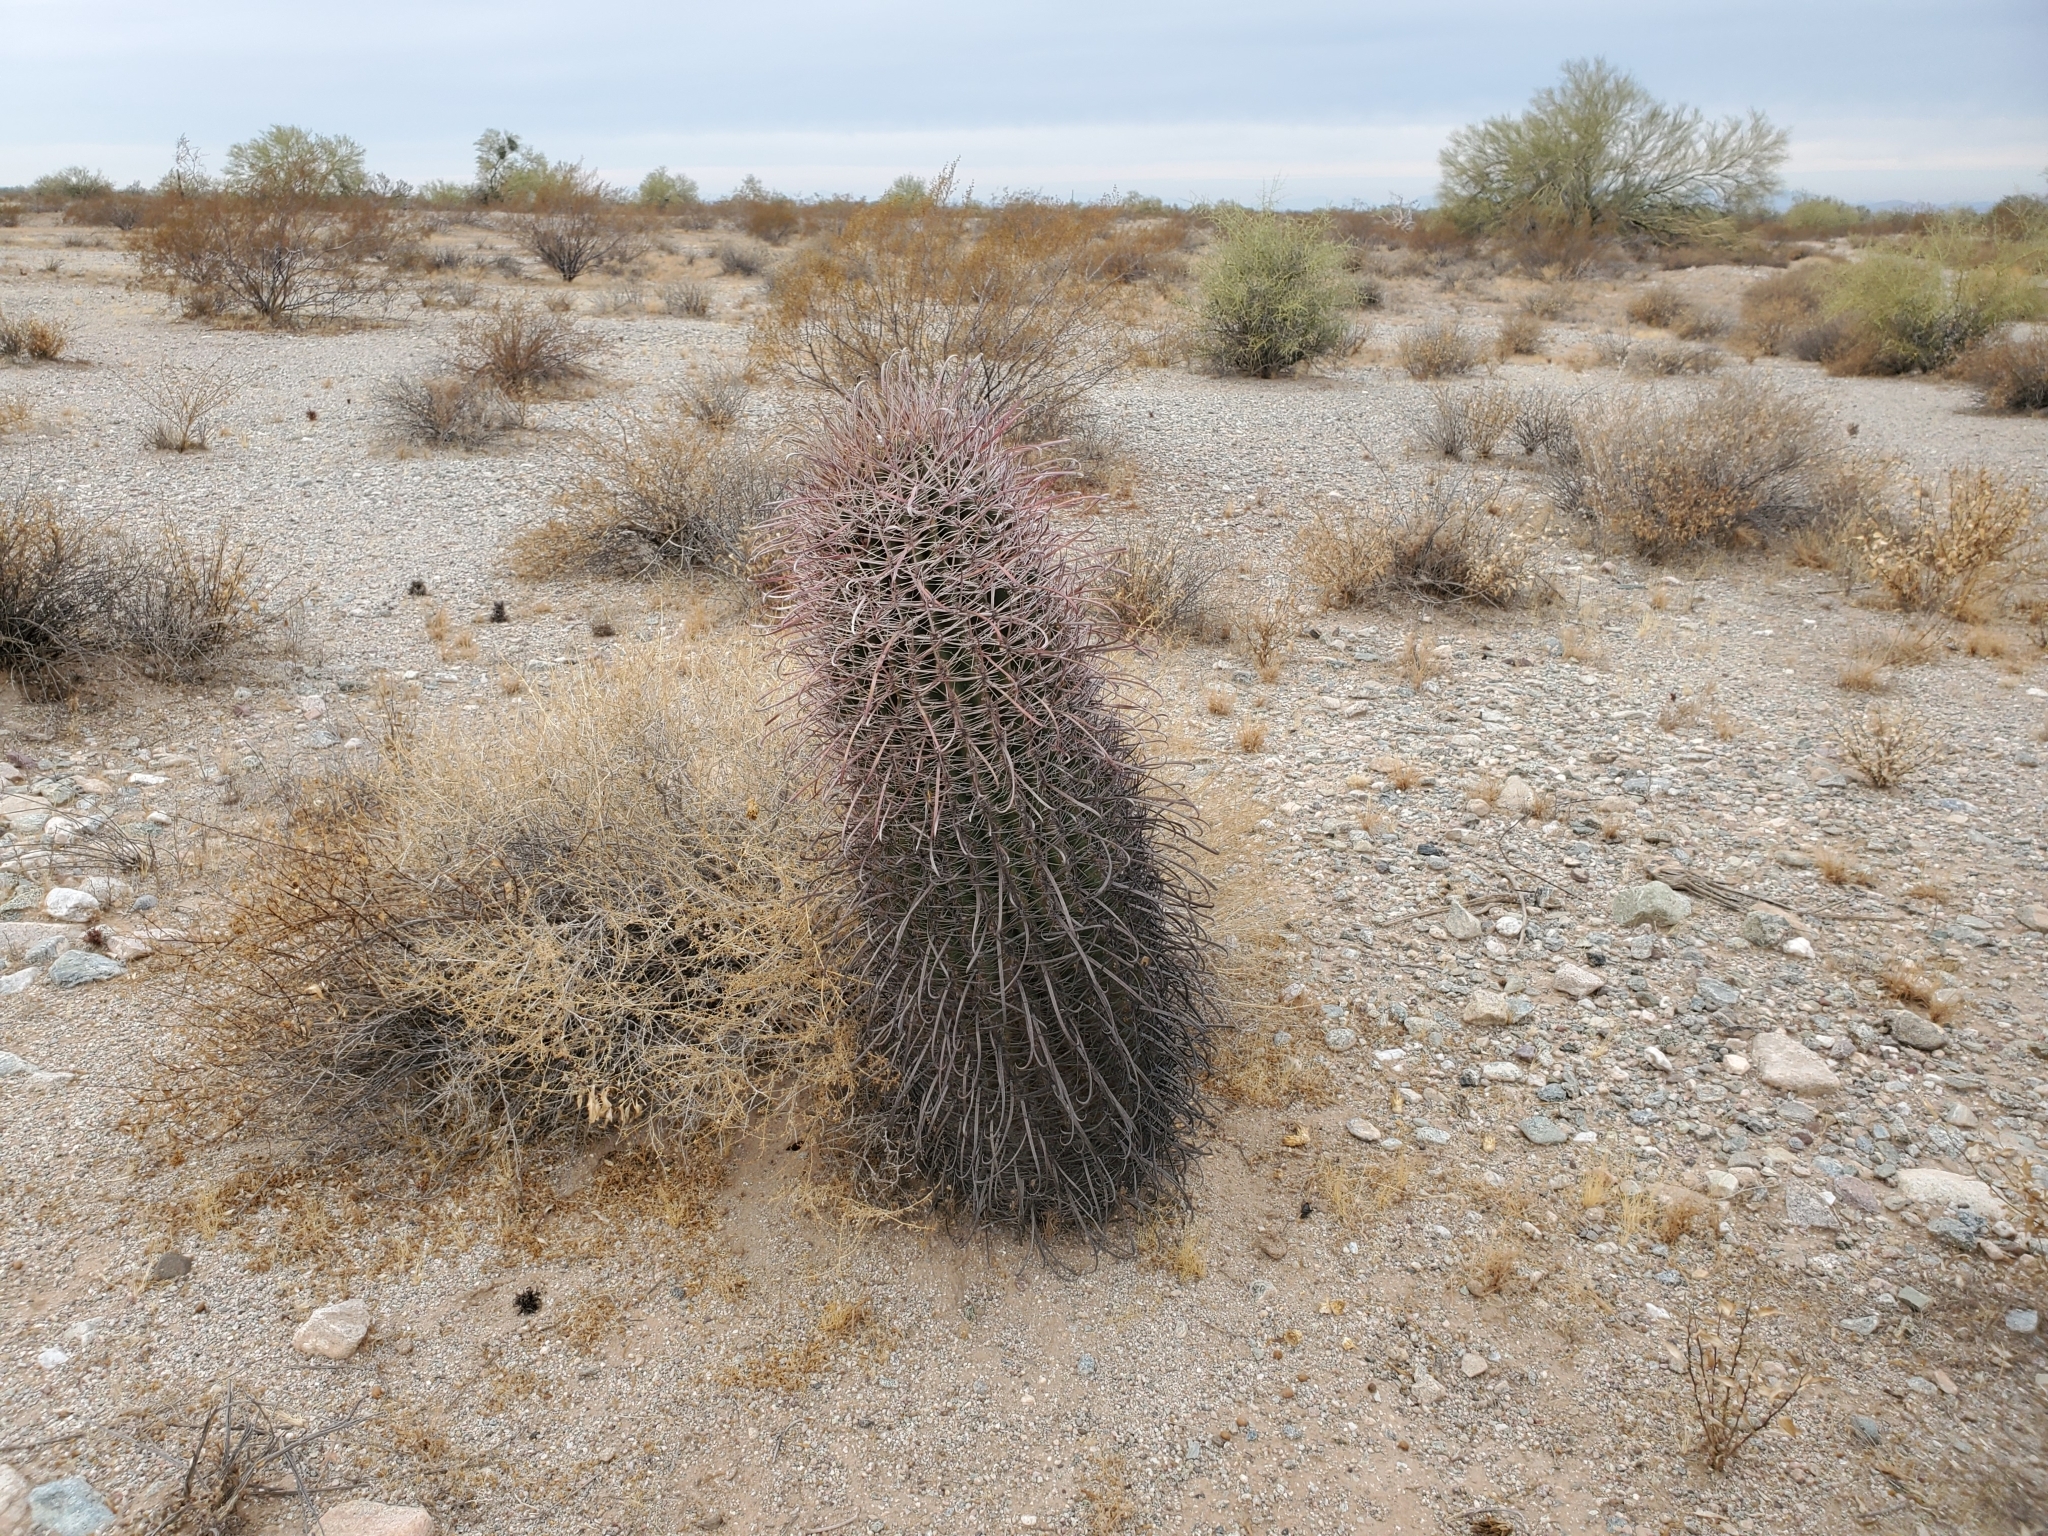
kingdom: Plantae
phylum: Tracheophyta
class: Magnoliopsida
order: Caryophyllales
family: Cactaceae
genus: Ferocactus
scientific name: Ferocactus cylindraceus
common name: California barrel cactus
